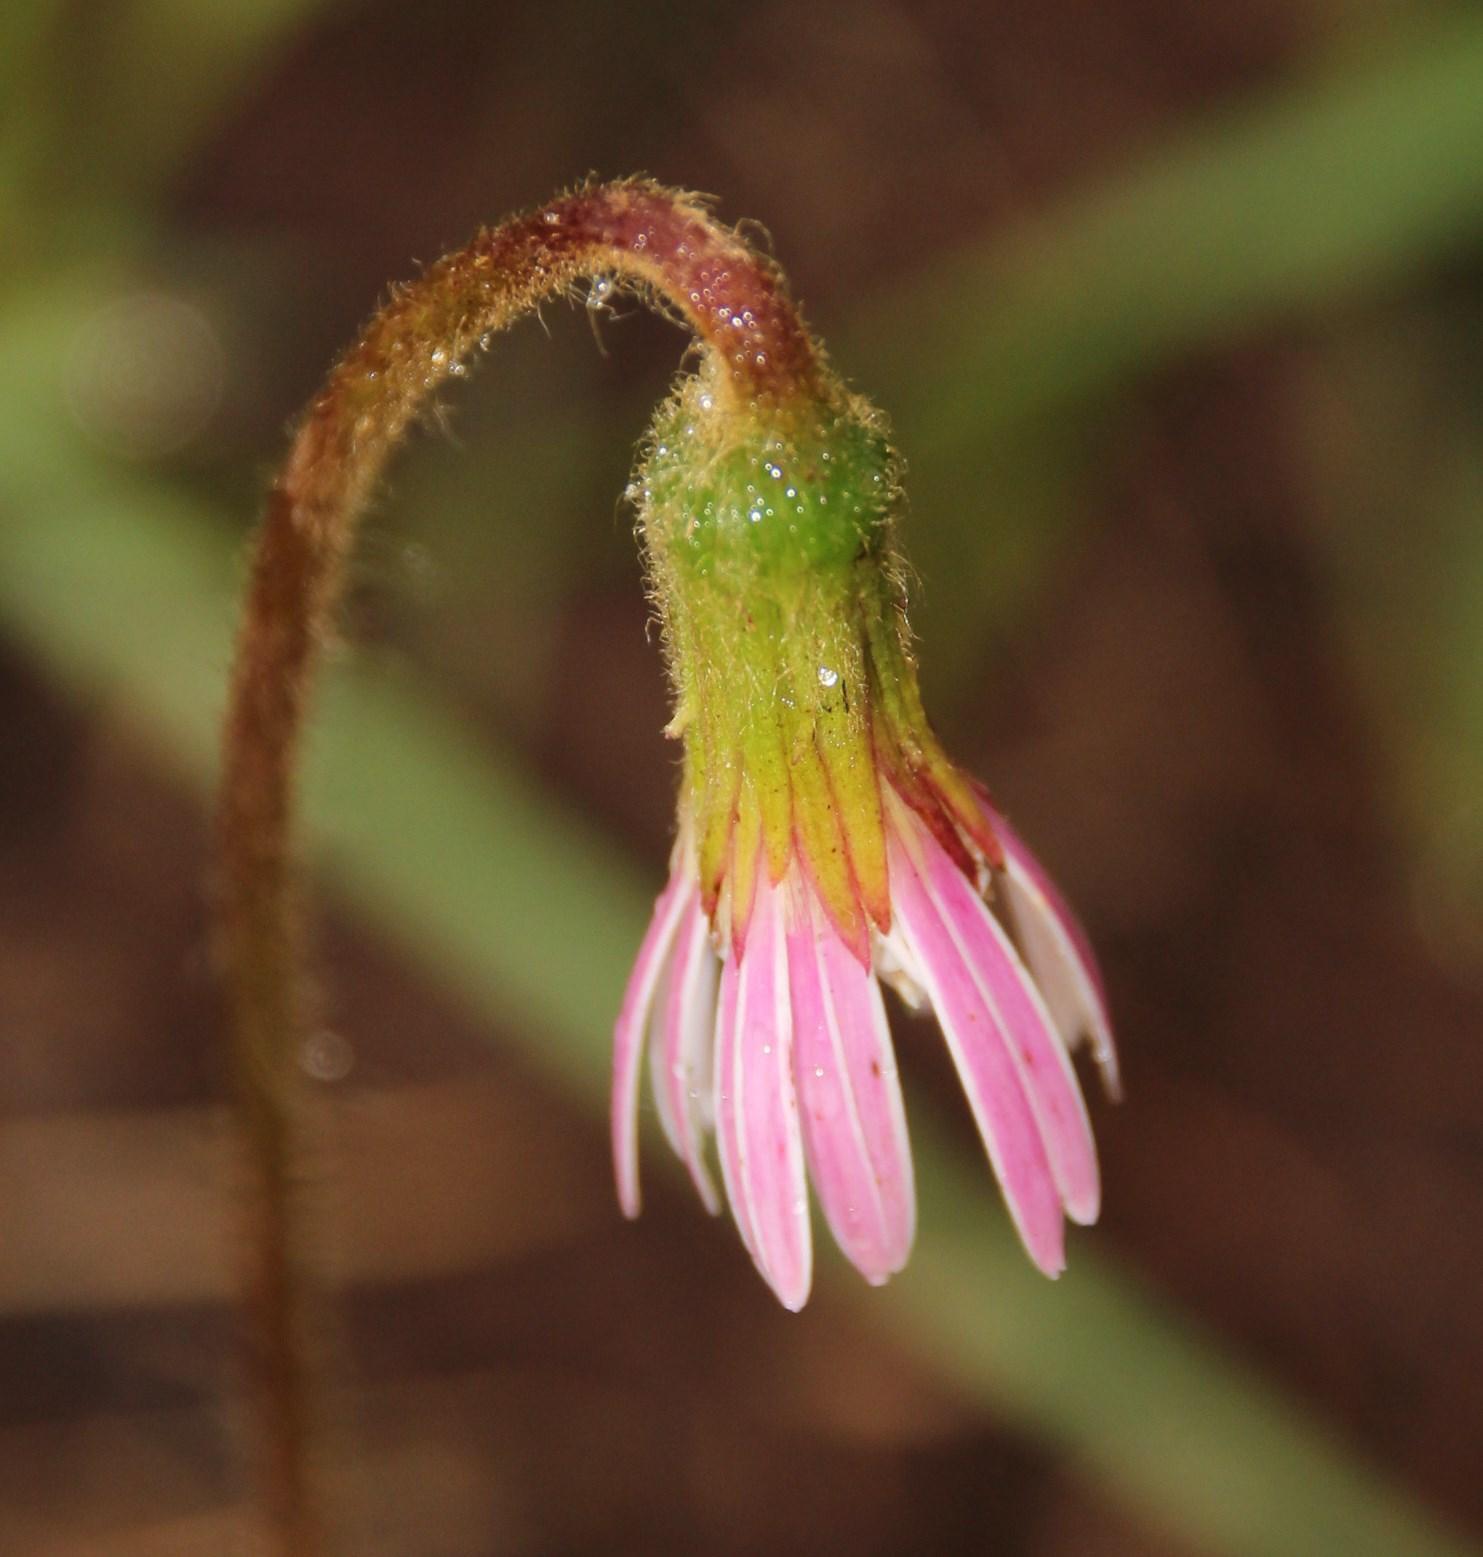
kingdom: Plantae
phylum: Tracheophyta
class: Magnoliopsida
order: Asterales
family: Asteraceae
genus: Piloselloides
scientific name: Piloselloides hirsuta
